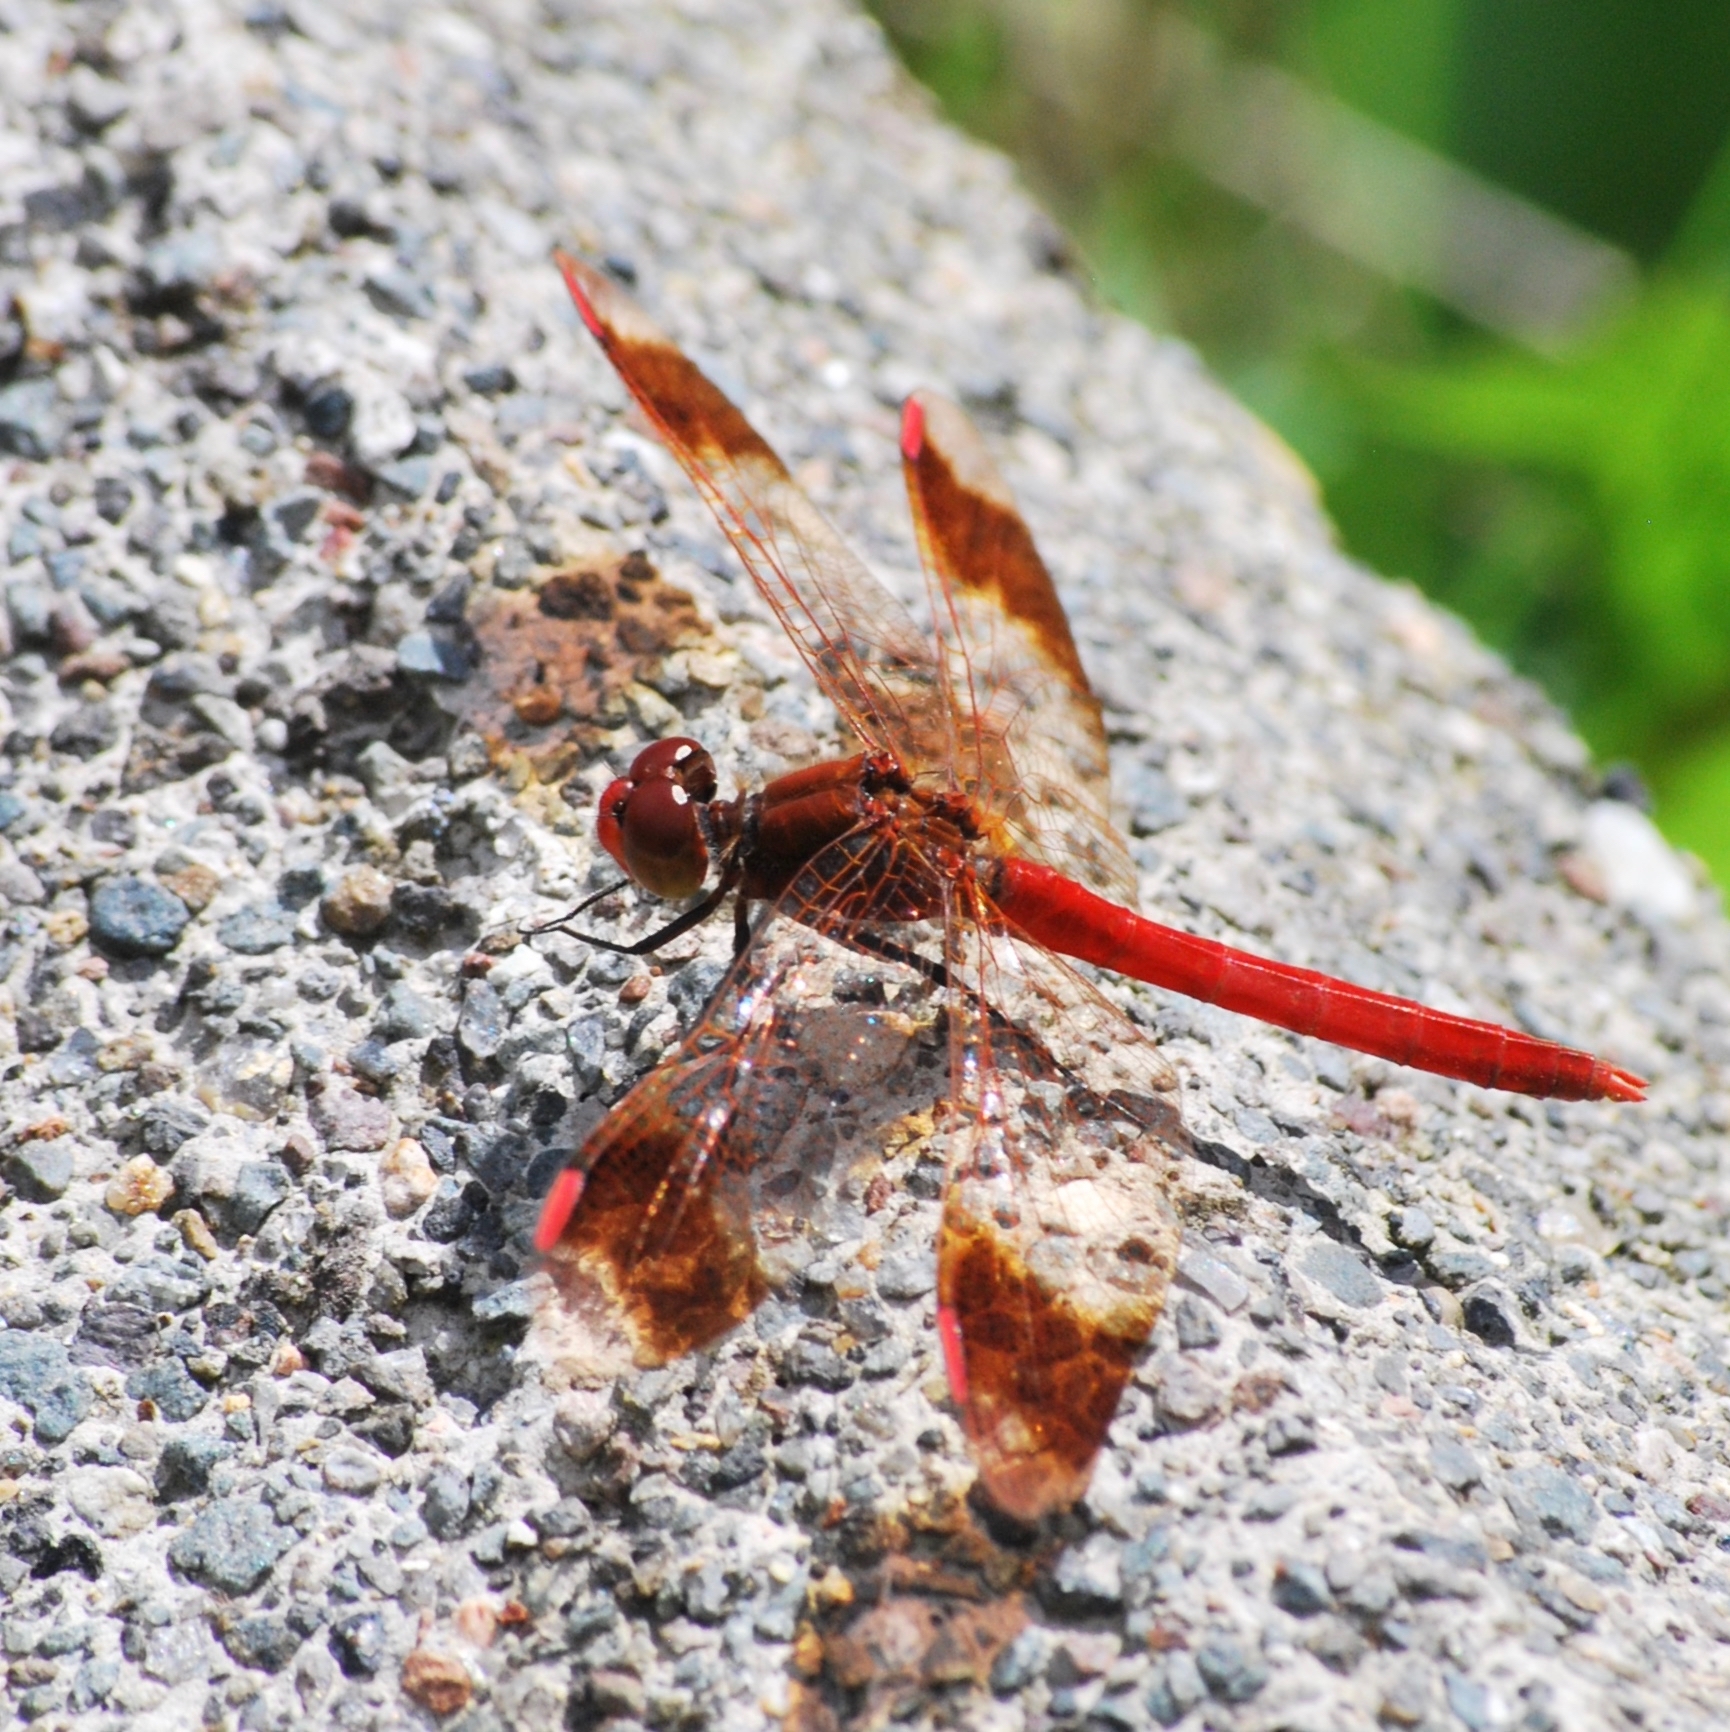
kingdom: Animalia
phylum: Arthropoda
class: Insecta
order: Odonata
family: Libellulidae
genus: Sympetrum
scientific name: Sympetrum pedemontanum
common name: Banded darter
